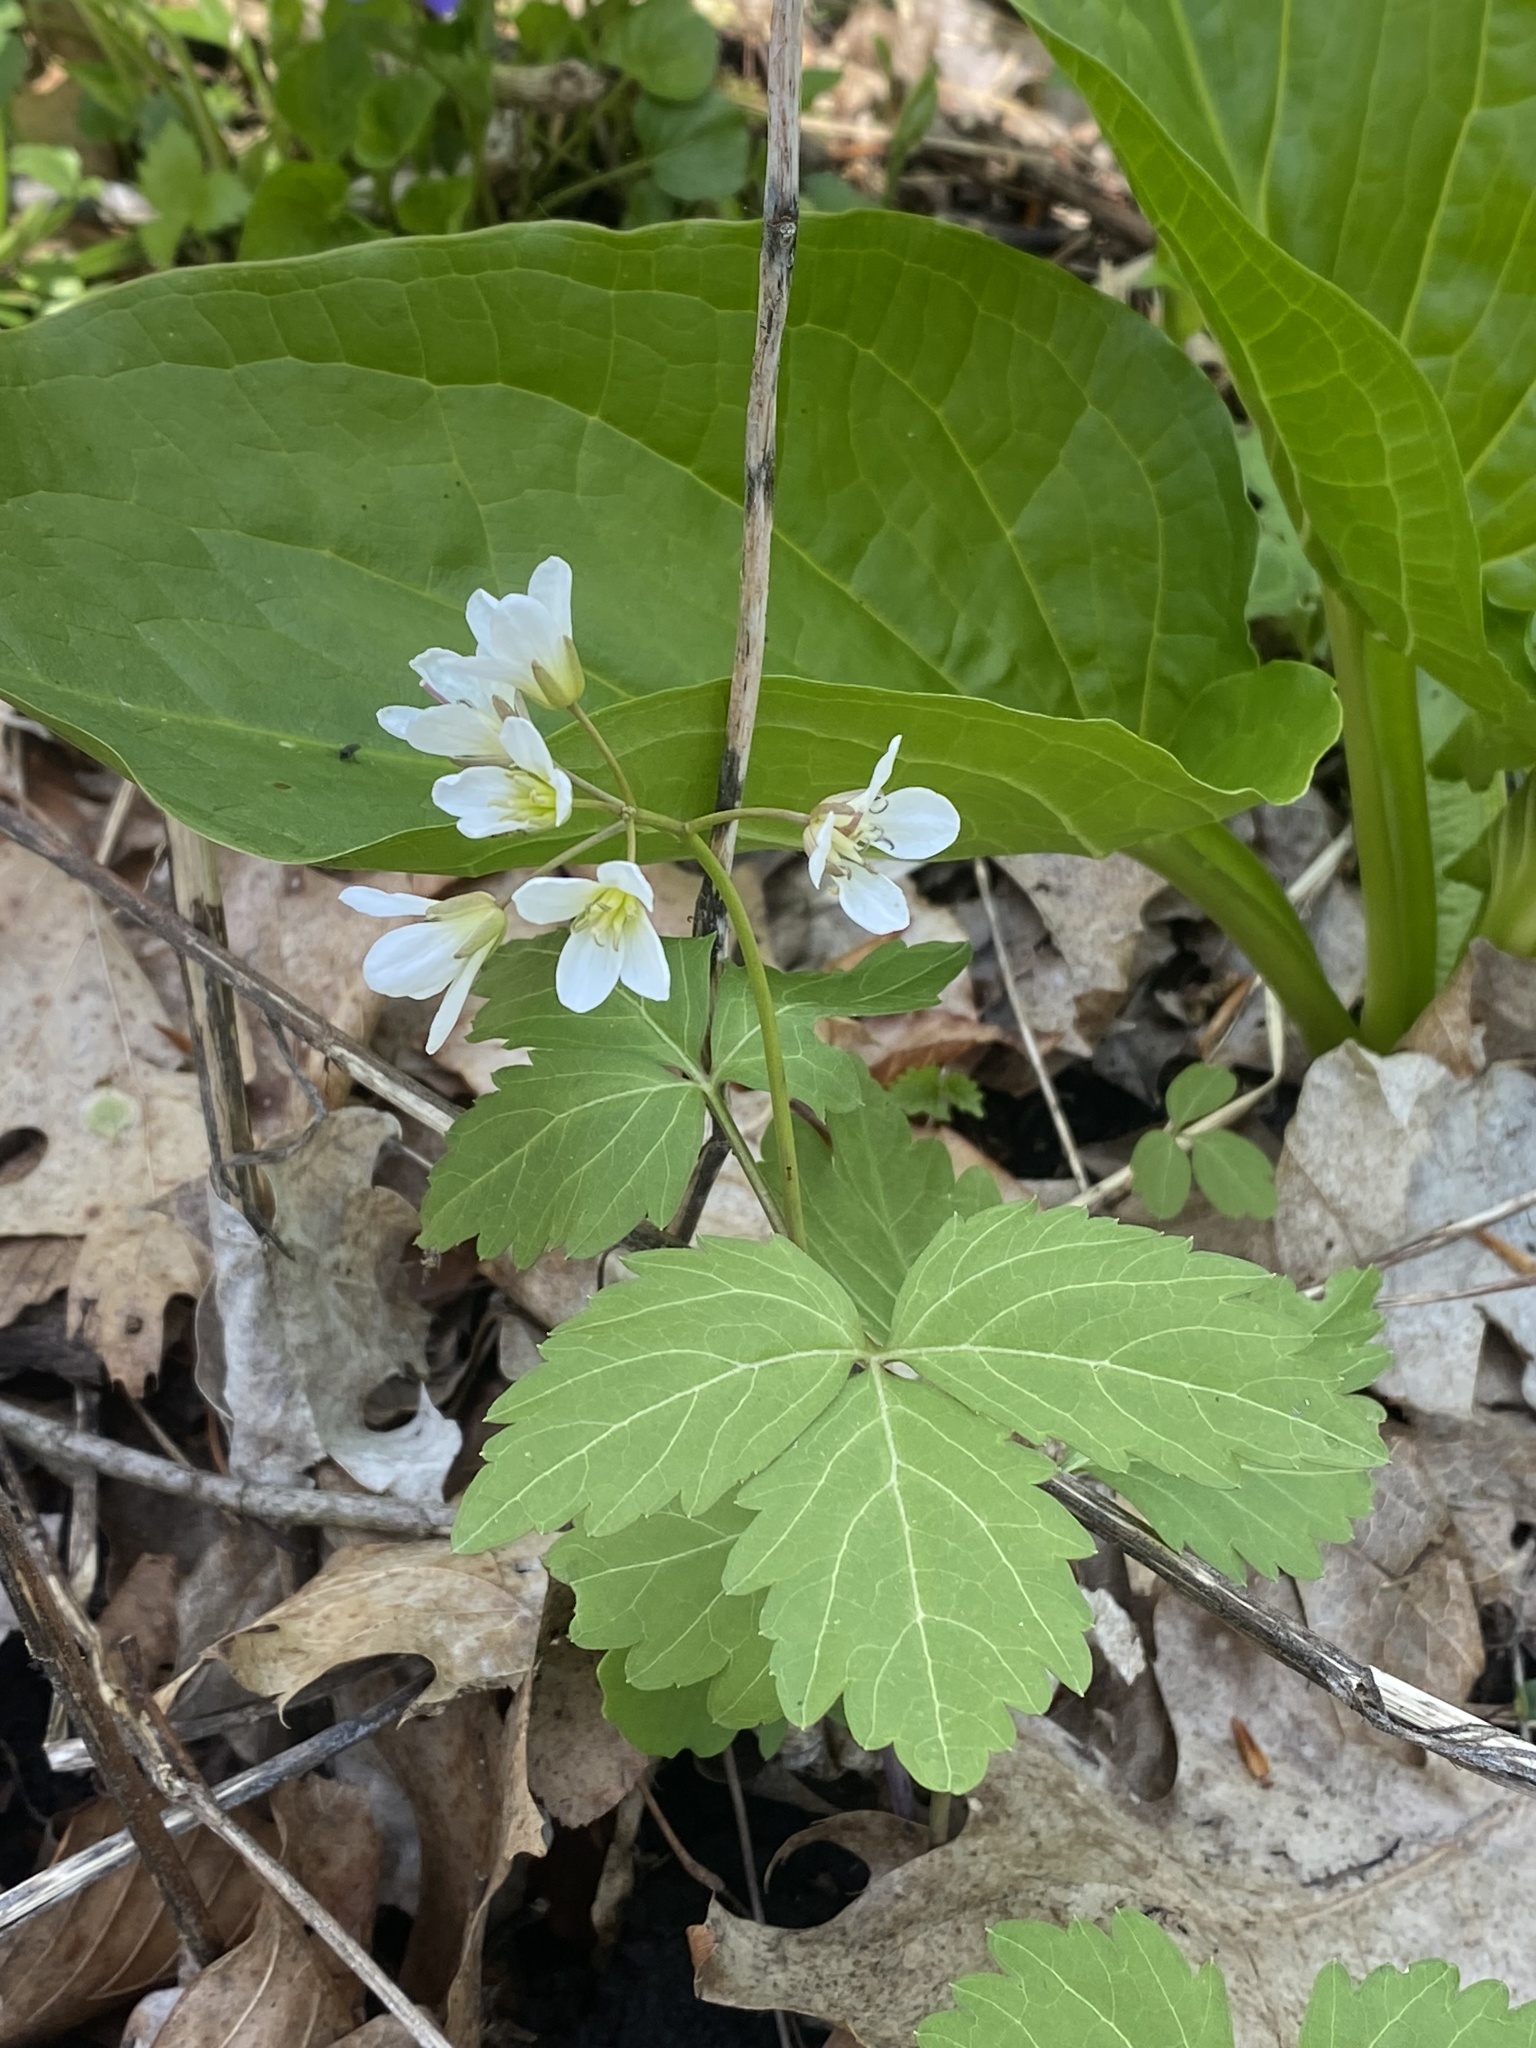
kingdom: Plantae
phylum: Tracheophyta
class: Magnoliopsida
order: Brassicales
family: Brassicaceae
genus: Cardamine
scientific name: Cardamine diphylla
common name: Broad-leaved toothwort
